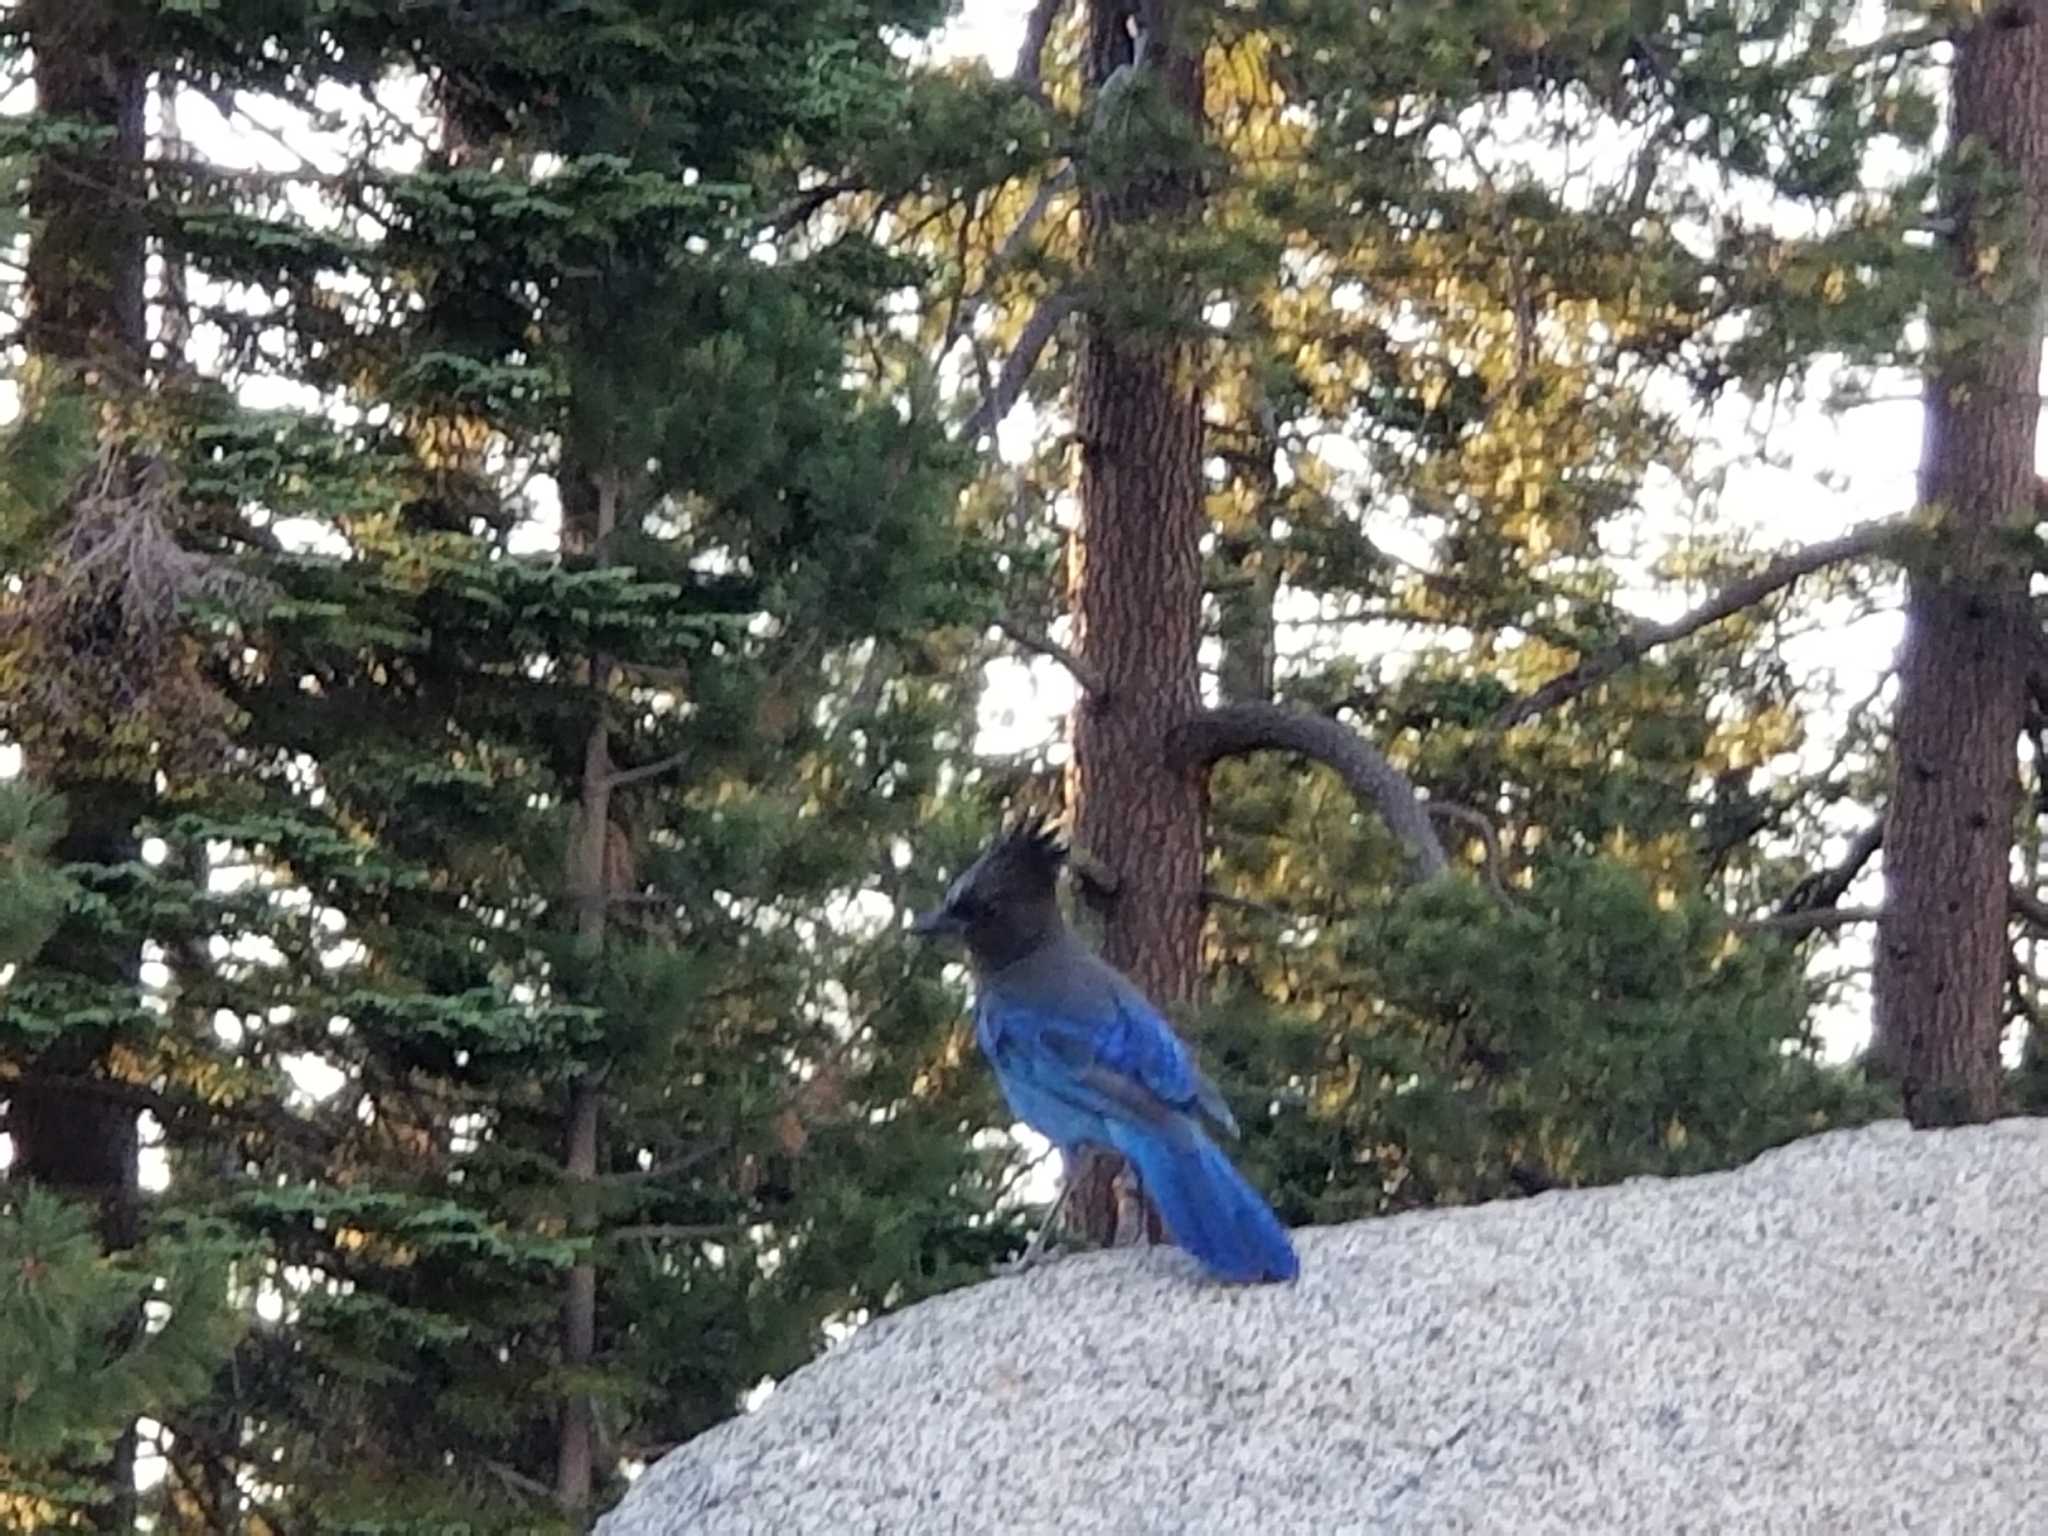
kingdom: Animalia
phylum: Chordata
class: Aves
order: Passeriformes
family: Corvidae
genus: Cyanocitta
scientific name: Cyanocitta stelleri
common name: Steller's jay
